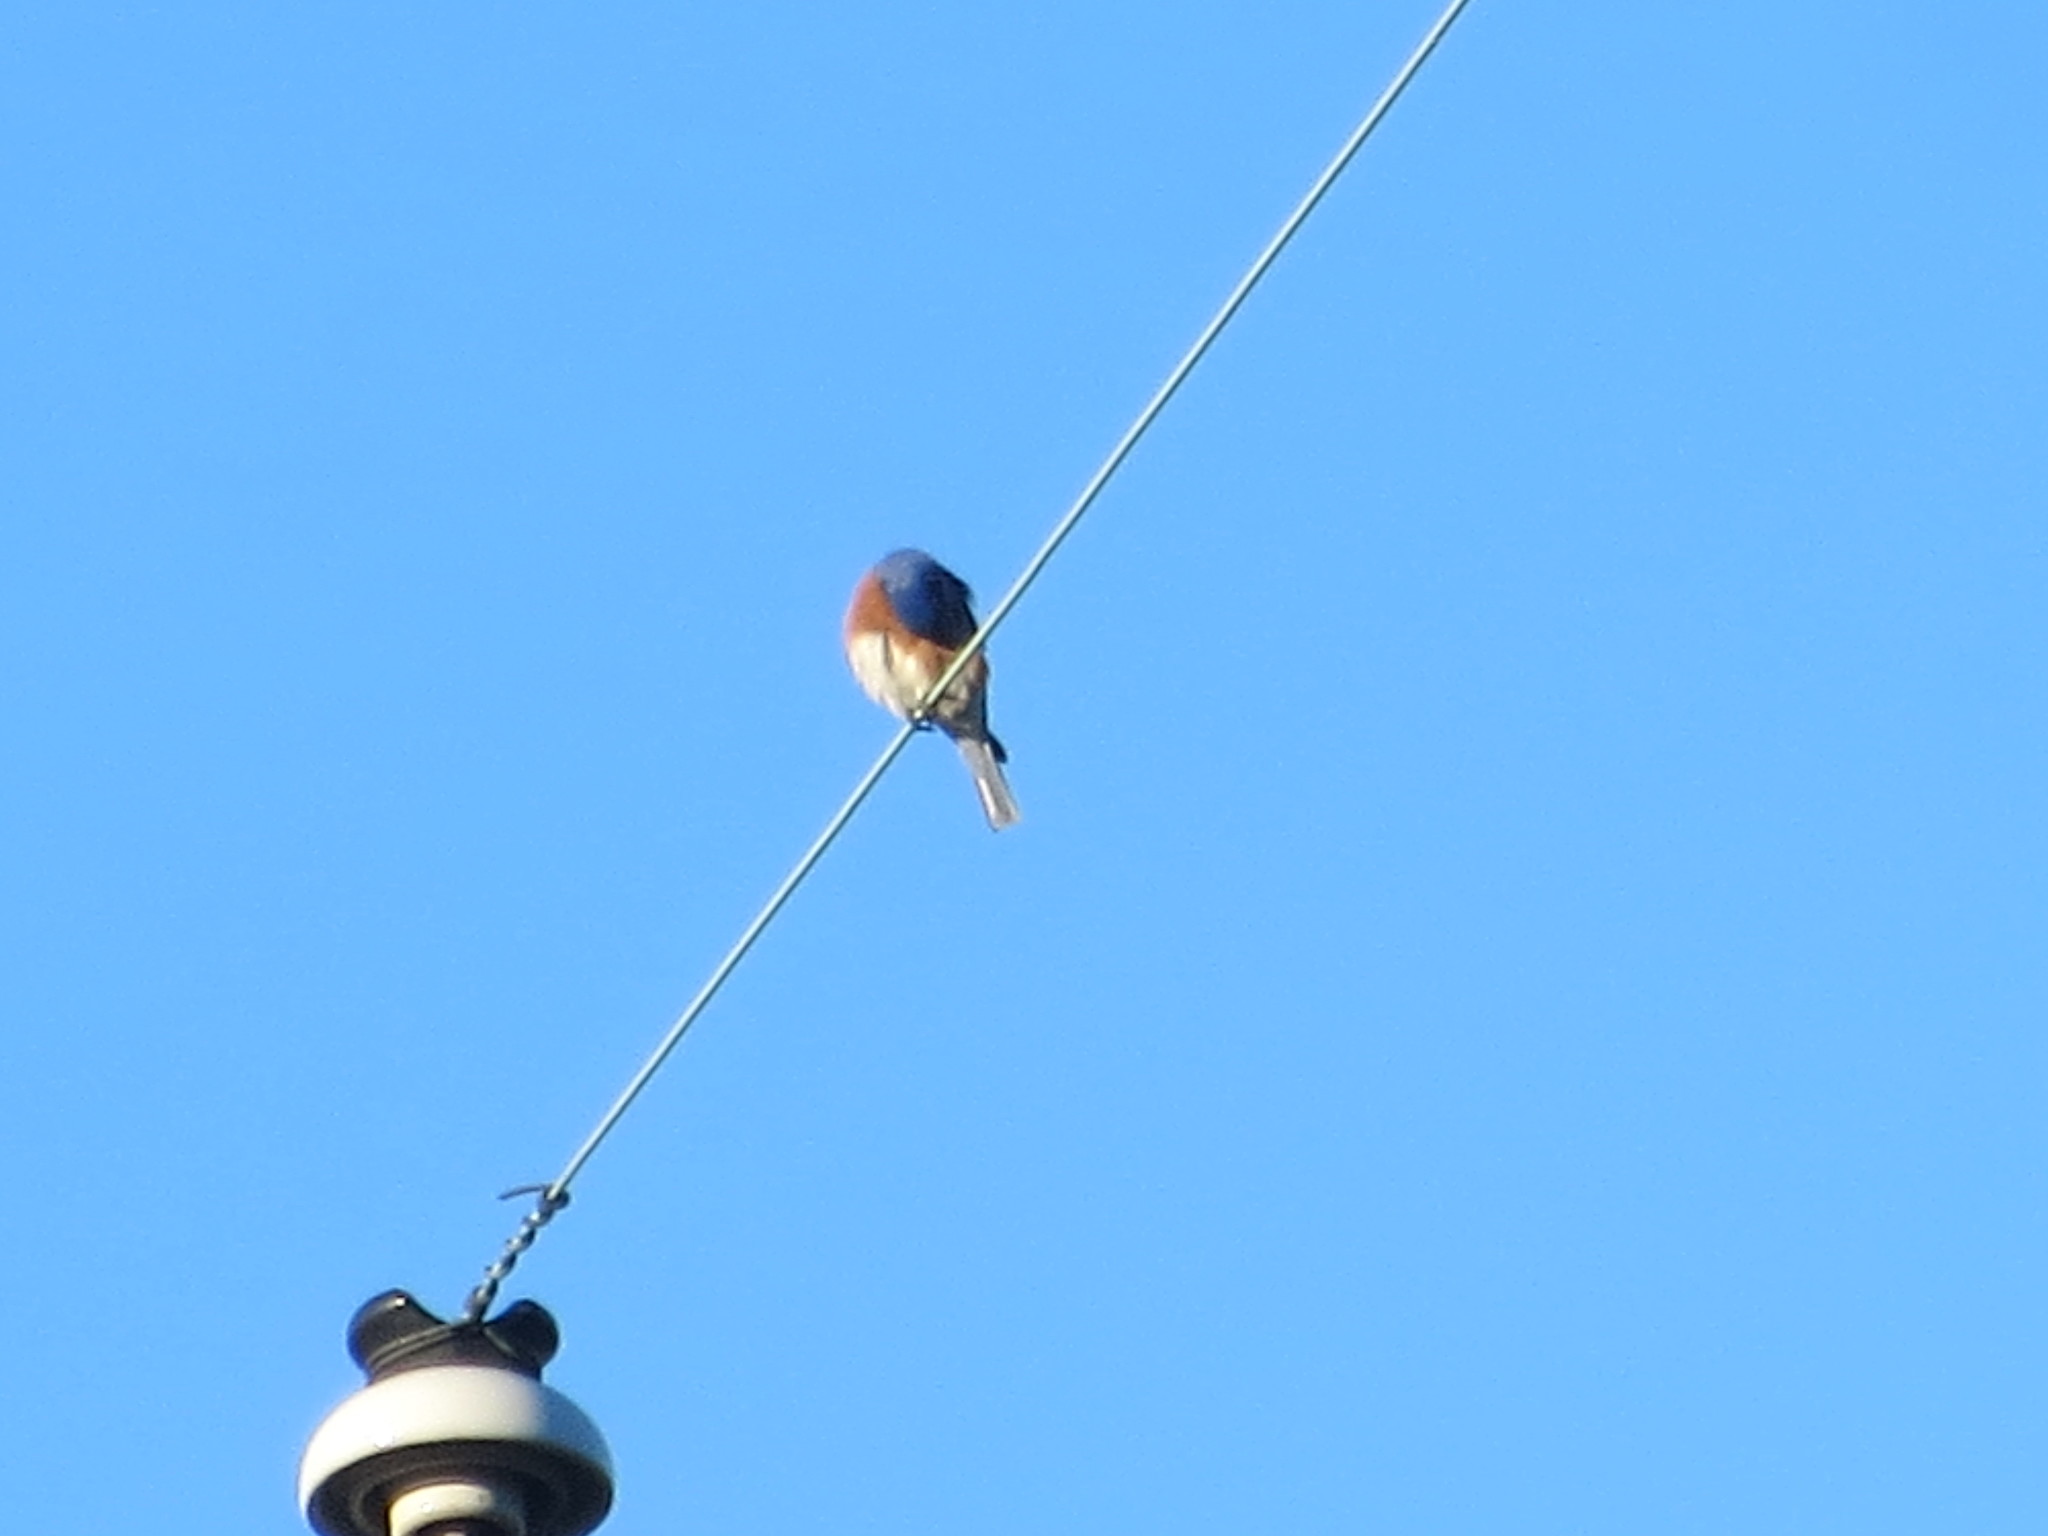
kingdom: Animalia
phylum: Chordata
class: Aves
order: Passeriformes
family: Turdidae
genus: Sialia
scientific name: Sialia sialis
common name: Eastern bluebird
